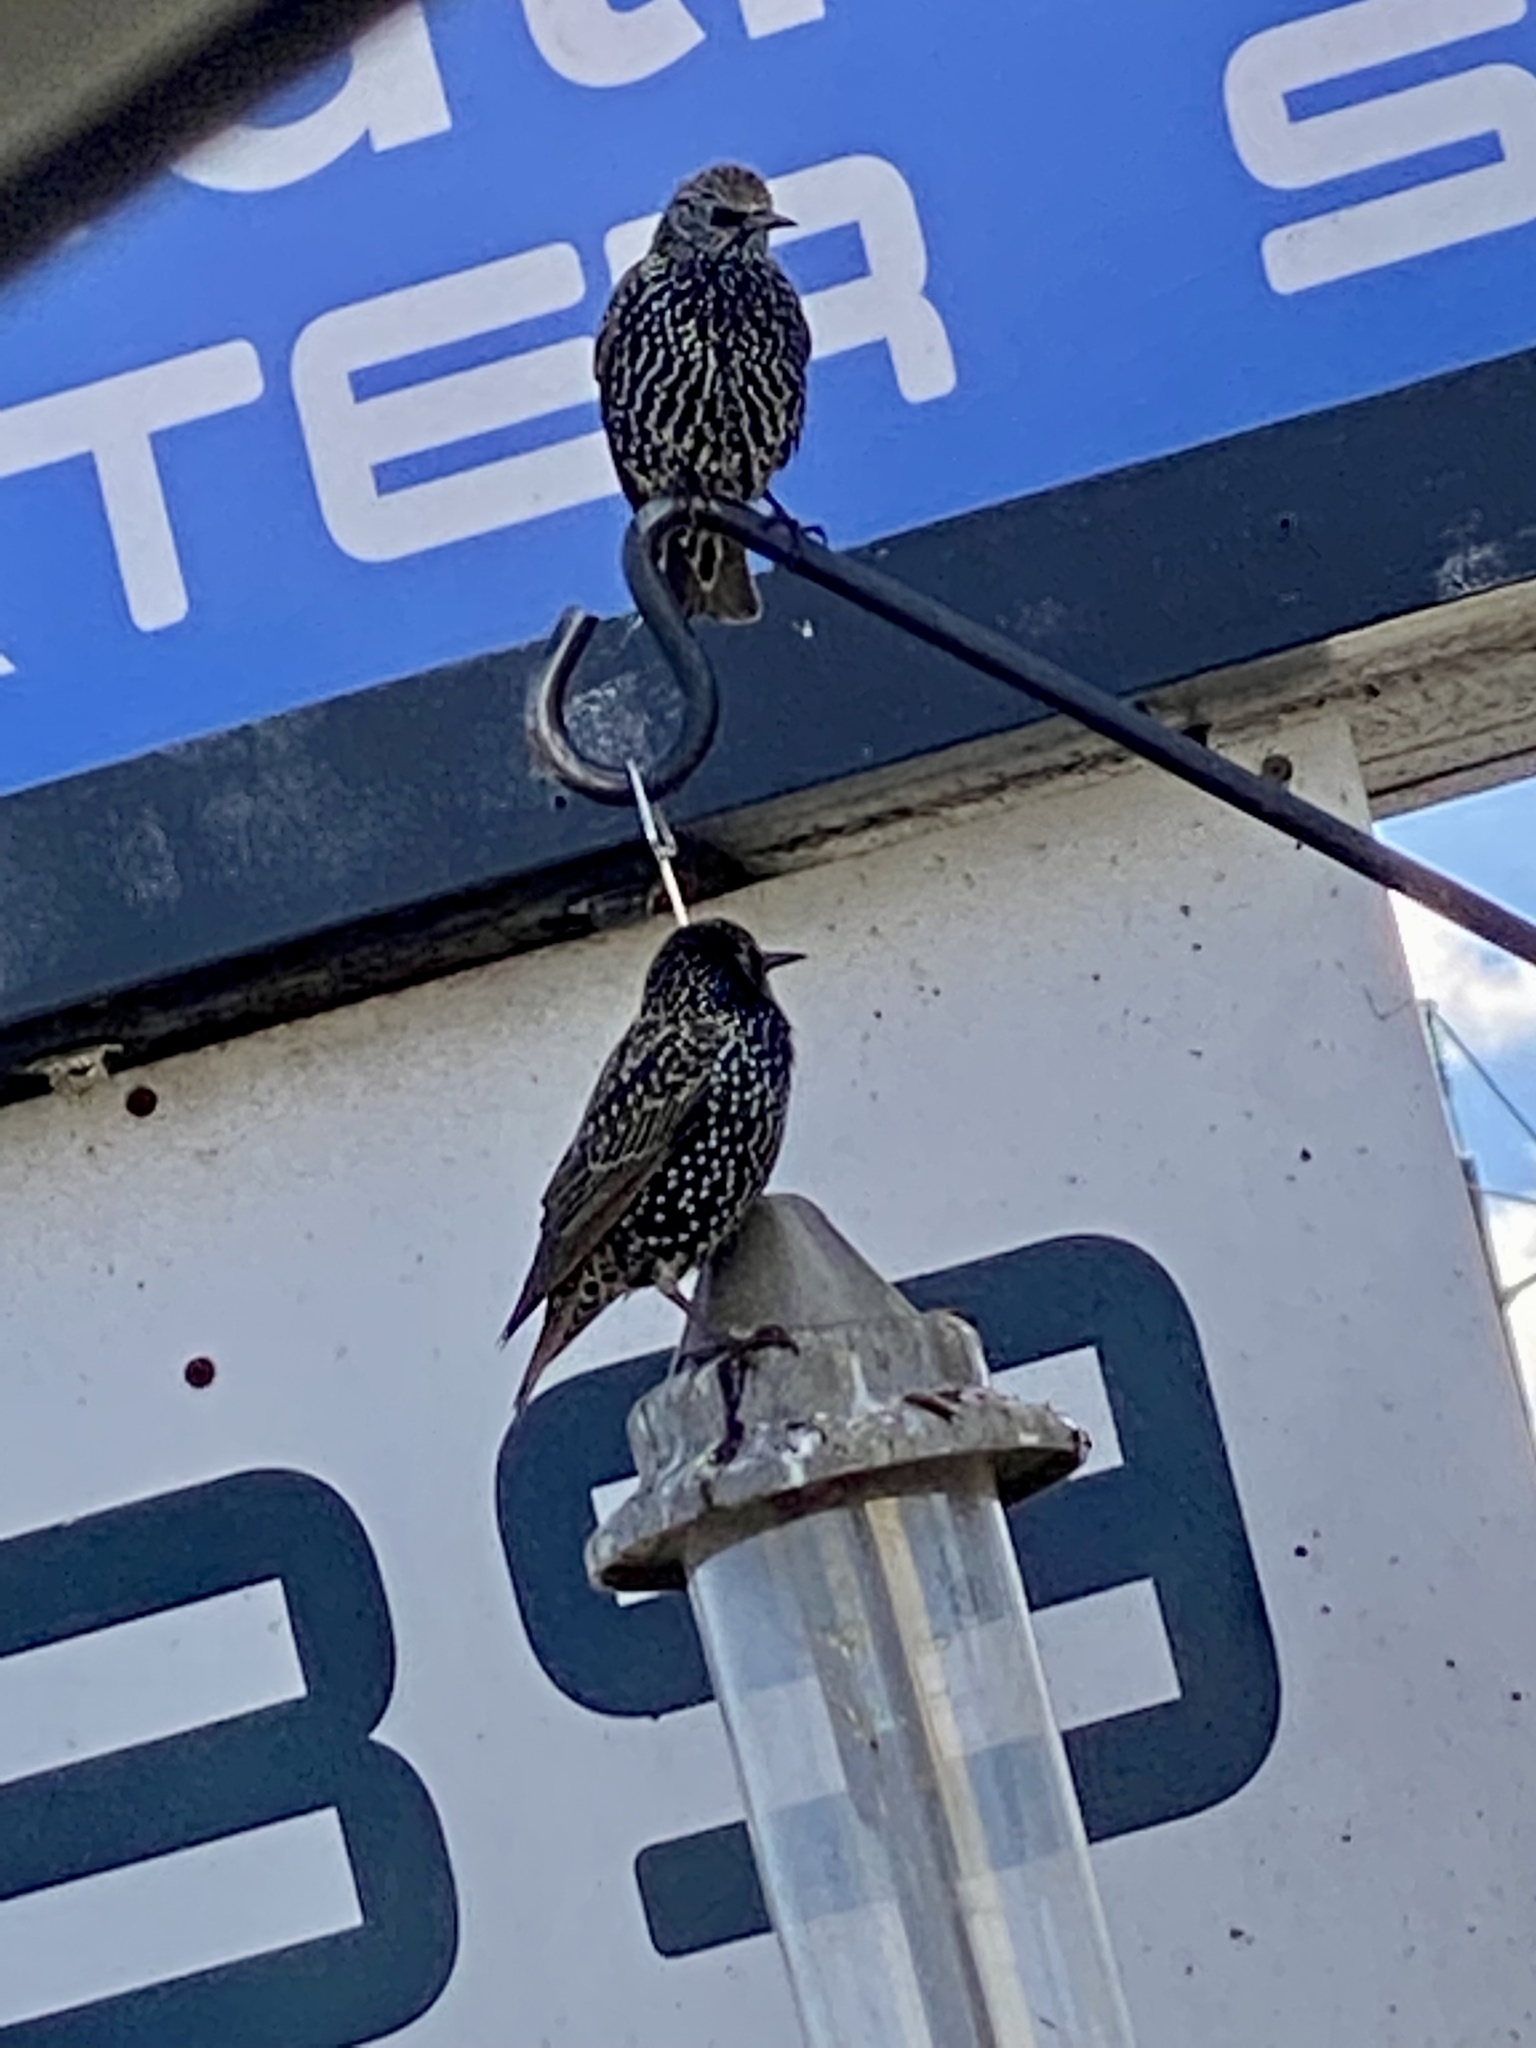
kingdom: Animalia
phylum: Chordata
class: Aves
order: Passeriformes
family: Sturnidae
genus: Sturnus
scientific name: Sturnus vulgaris
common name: Common starling
